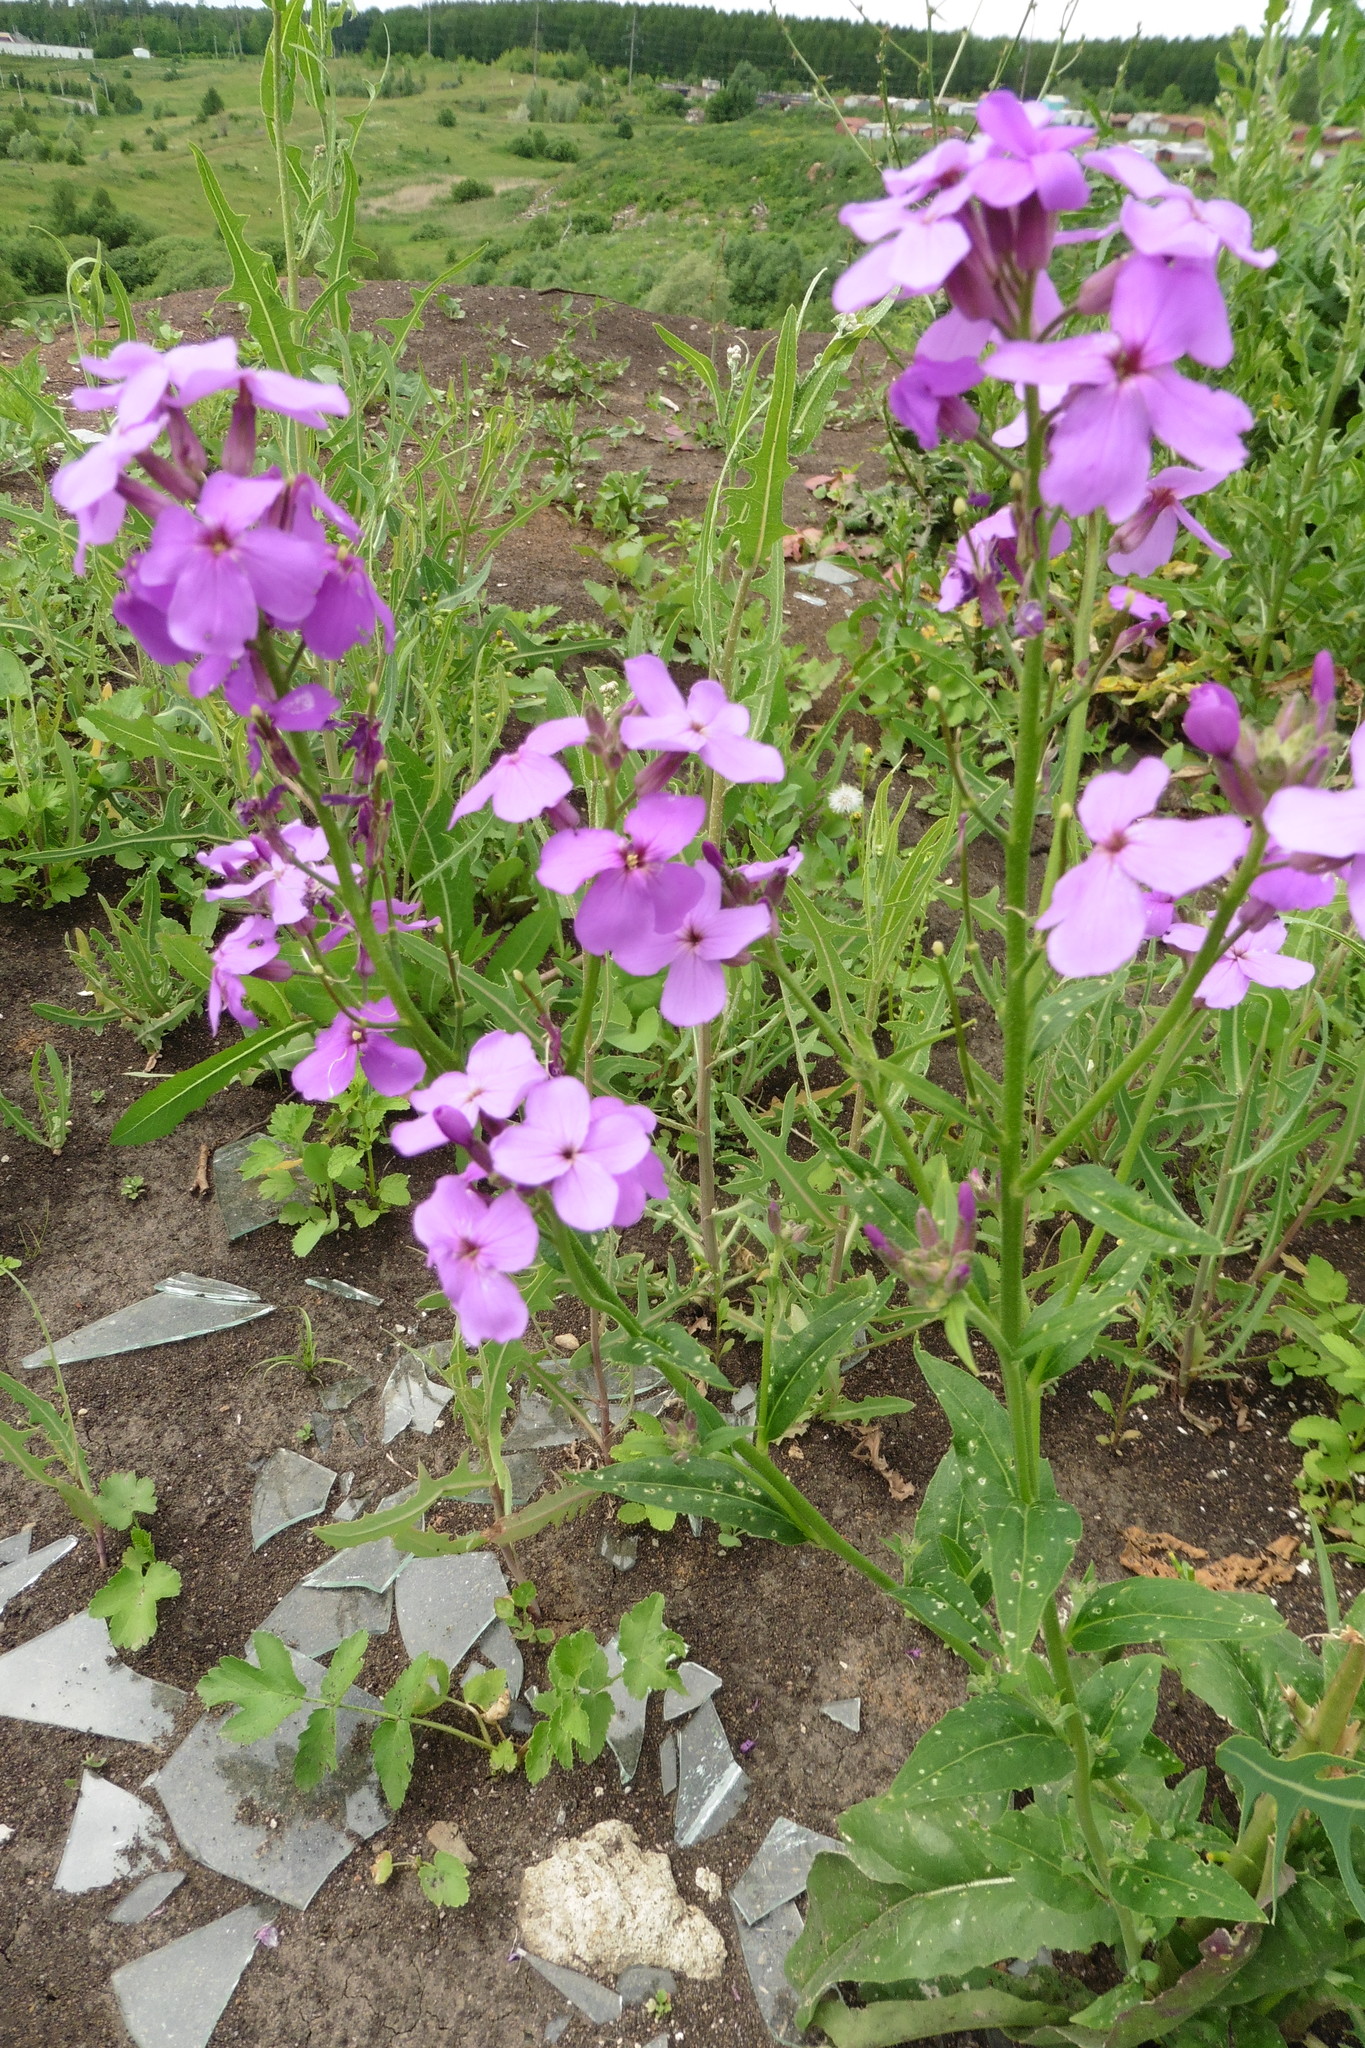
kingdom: Plantae
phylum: Tracheophyta
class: Magnoliopsida
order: Brassicales
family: Brassicaceae
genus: Hesperis
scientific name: Hesperis matronalis
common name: Dame's-violet
